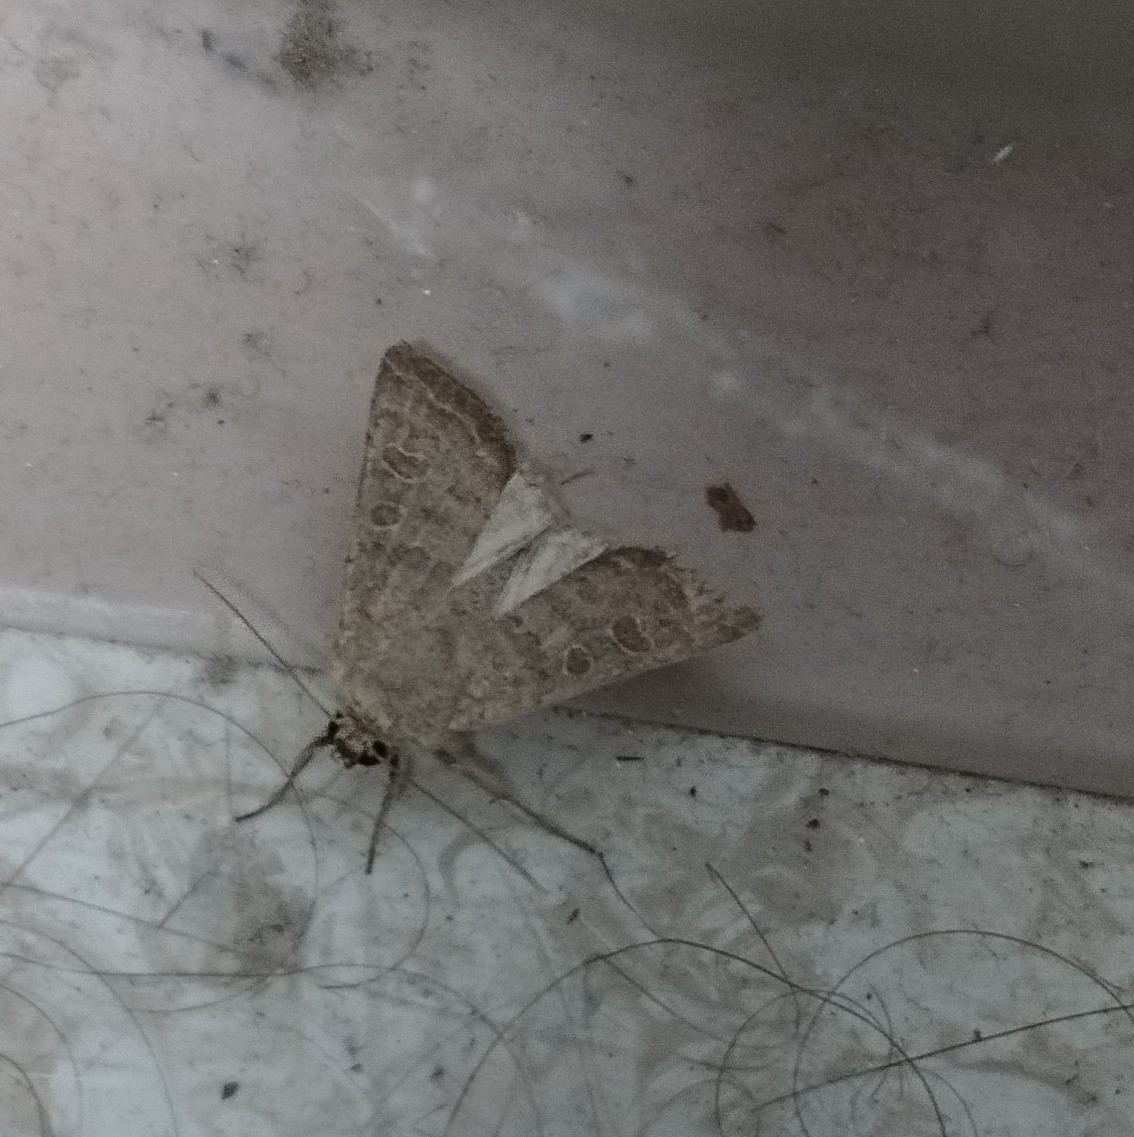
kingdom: Animalia
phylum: Arthropoda
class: Insecta
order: Lepidoptera
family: Noctuidae
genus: Hoplodrina
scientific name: Hoplodrina ambigua
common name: Vine's rustic
